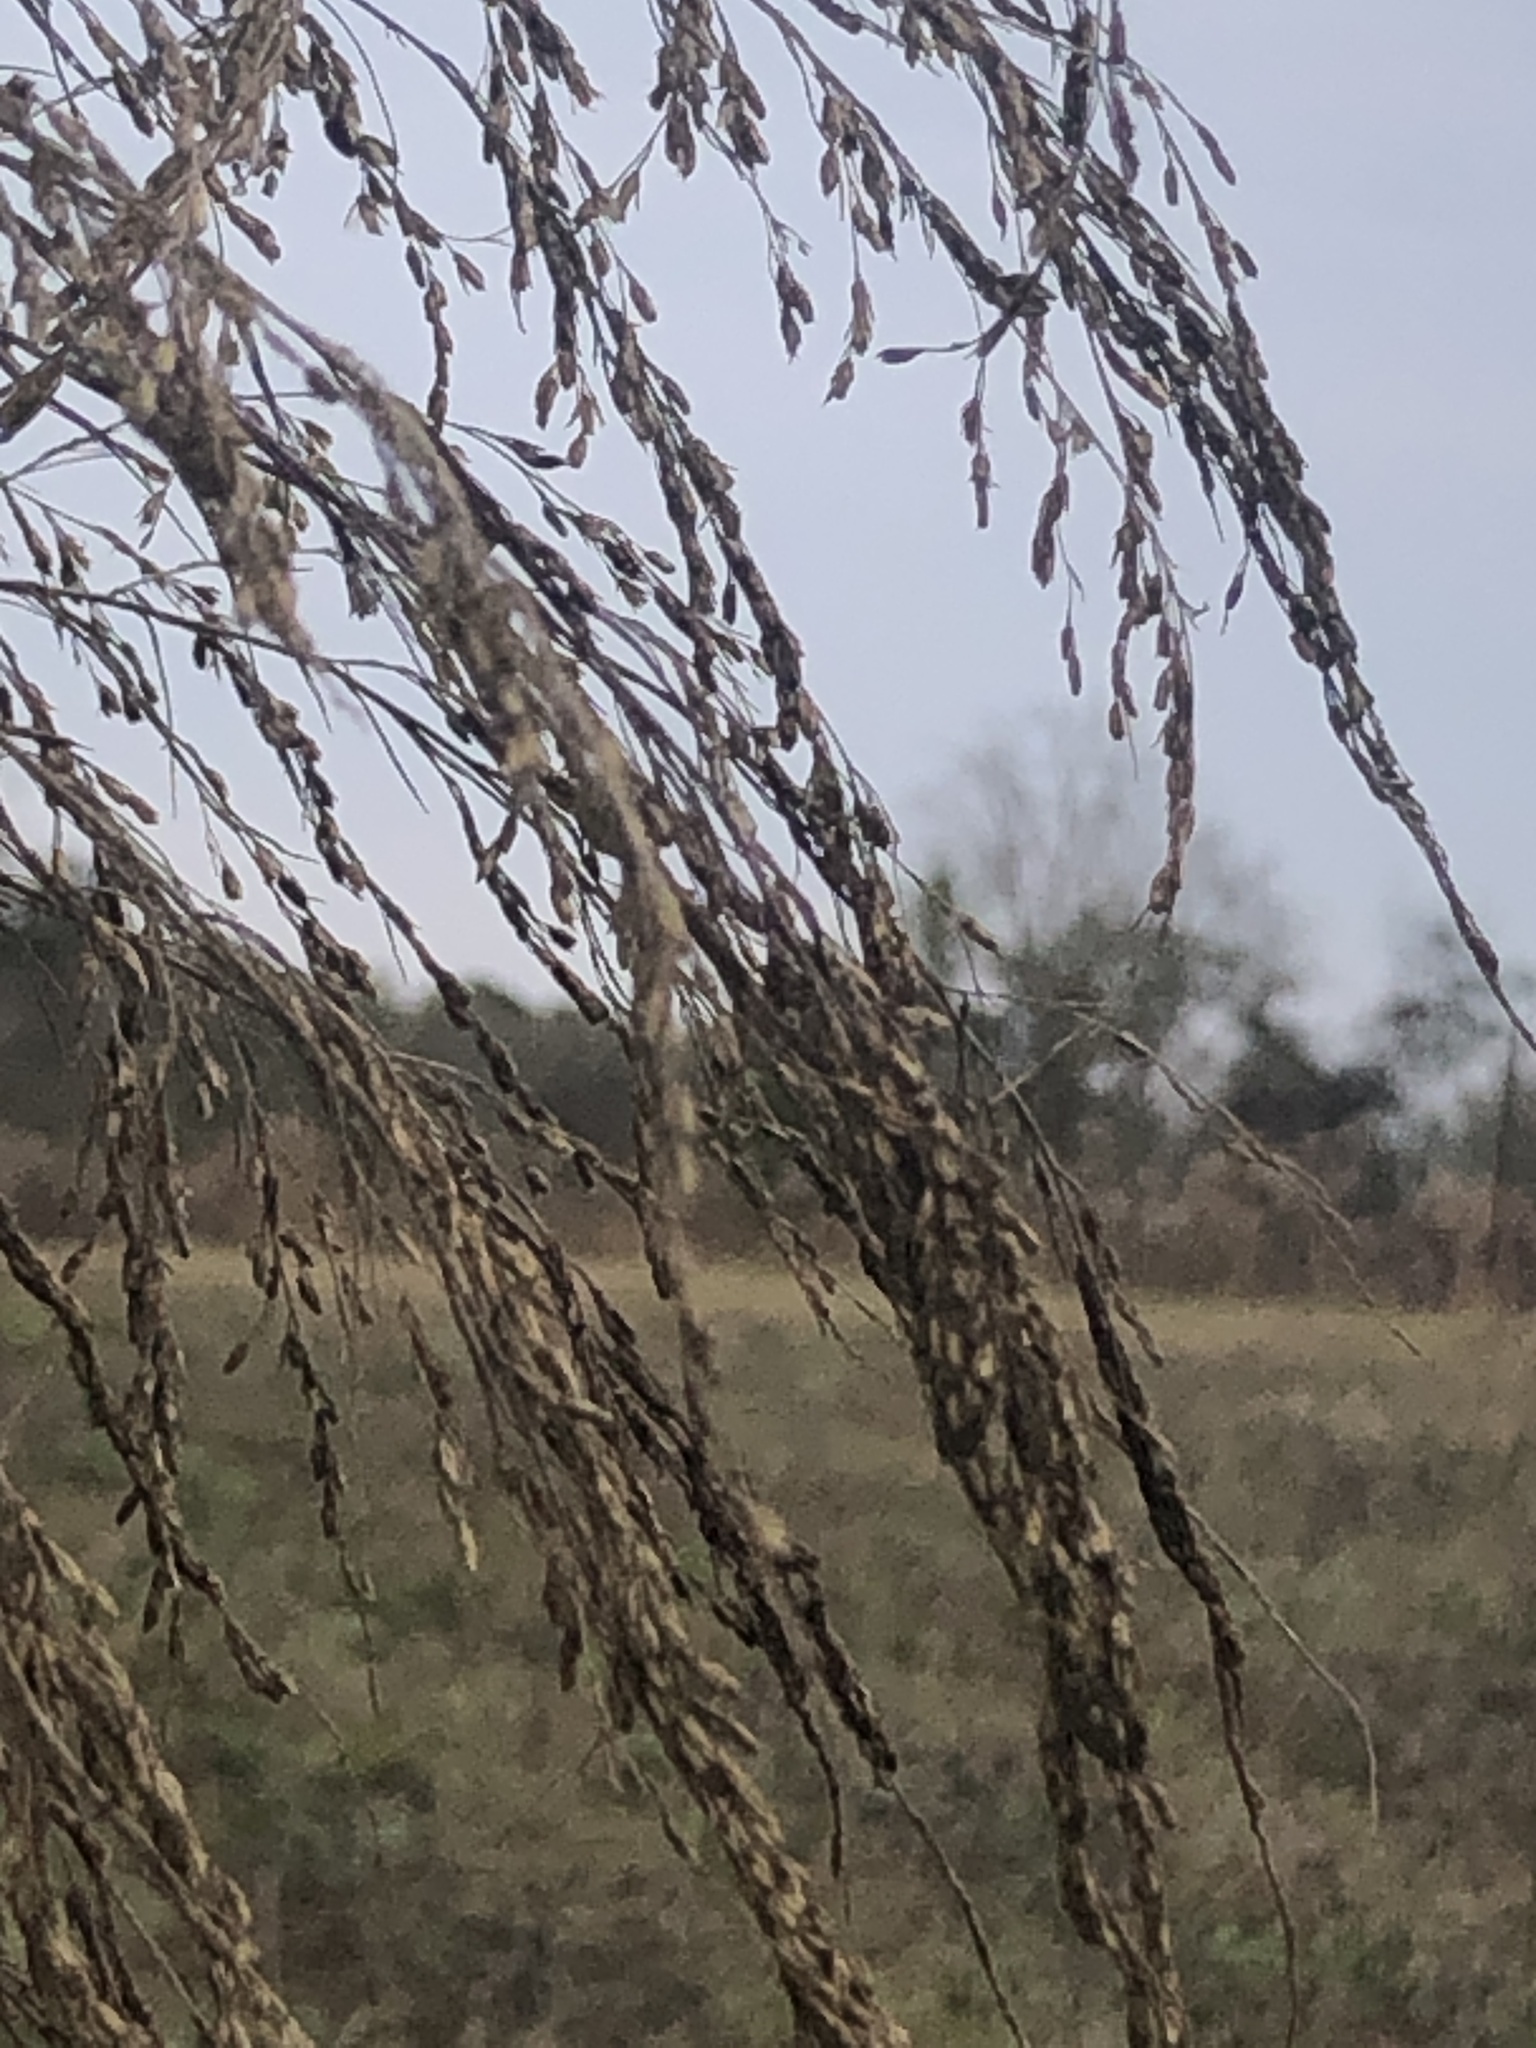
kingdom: Plantae
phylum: Tracheophyta
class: Liliopsida
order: Poales
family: Poaceae
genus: Tridens
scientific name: Tridens flavus
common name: Purpletop
